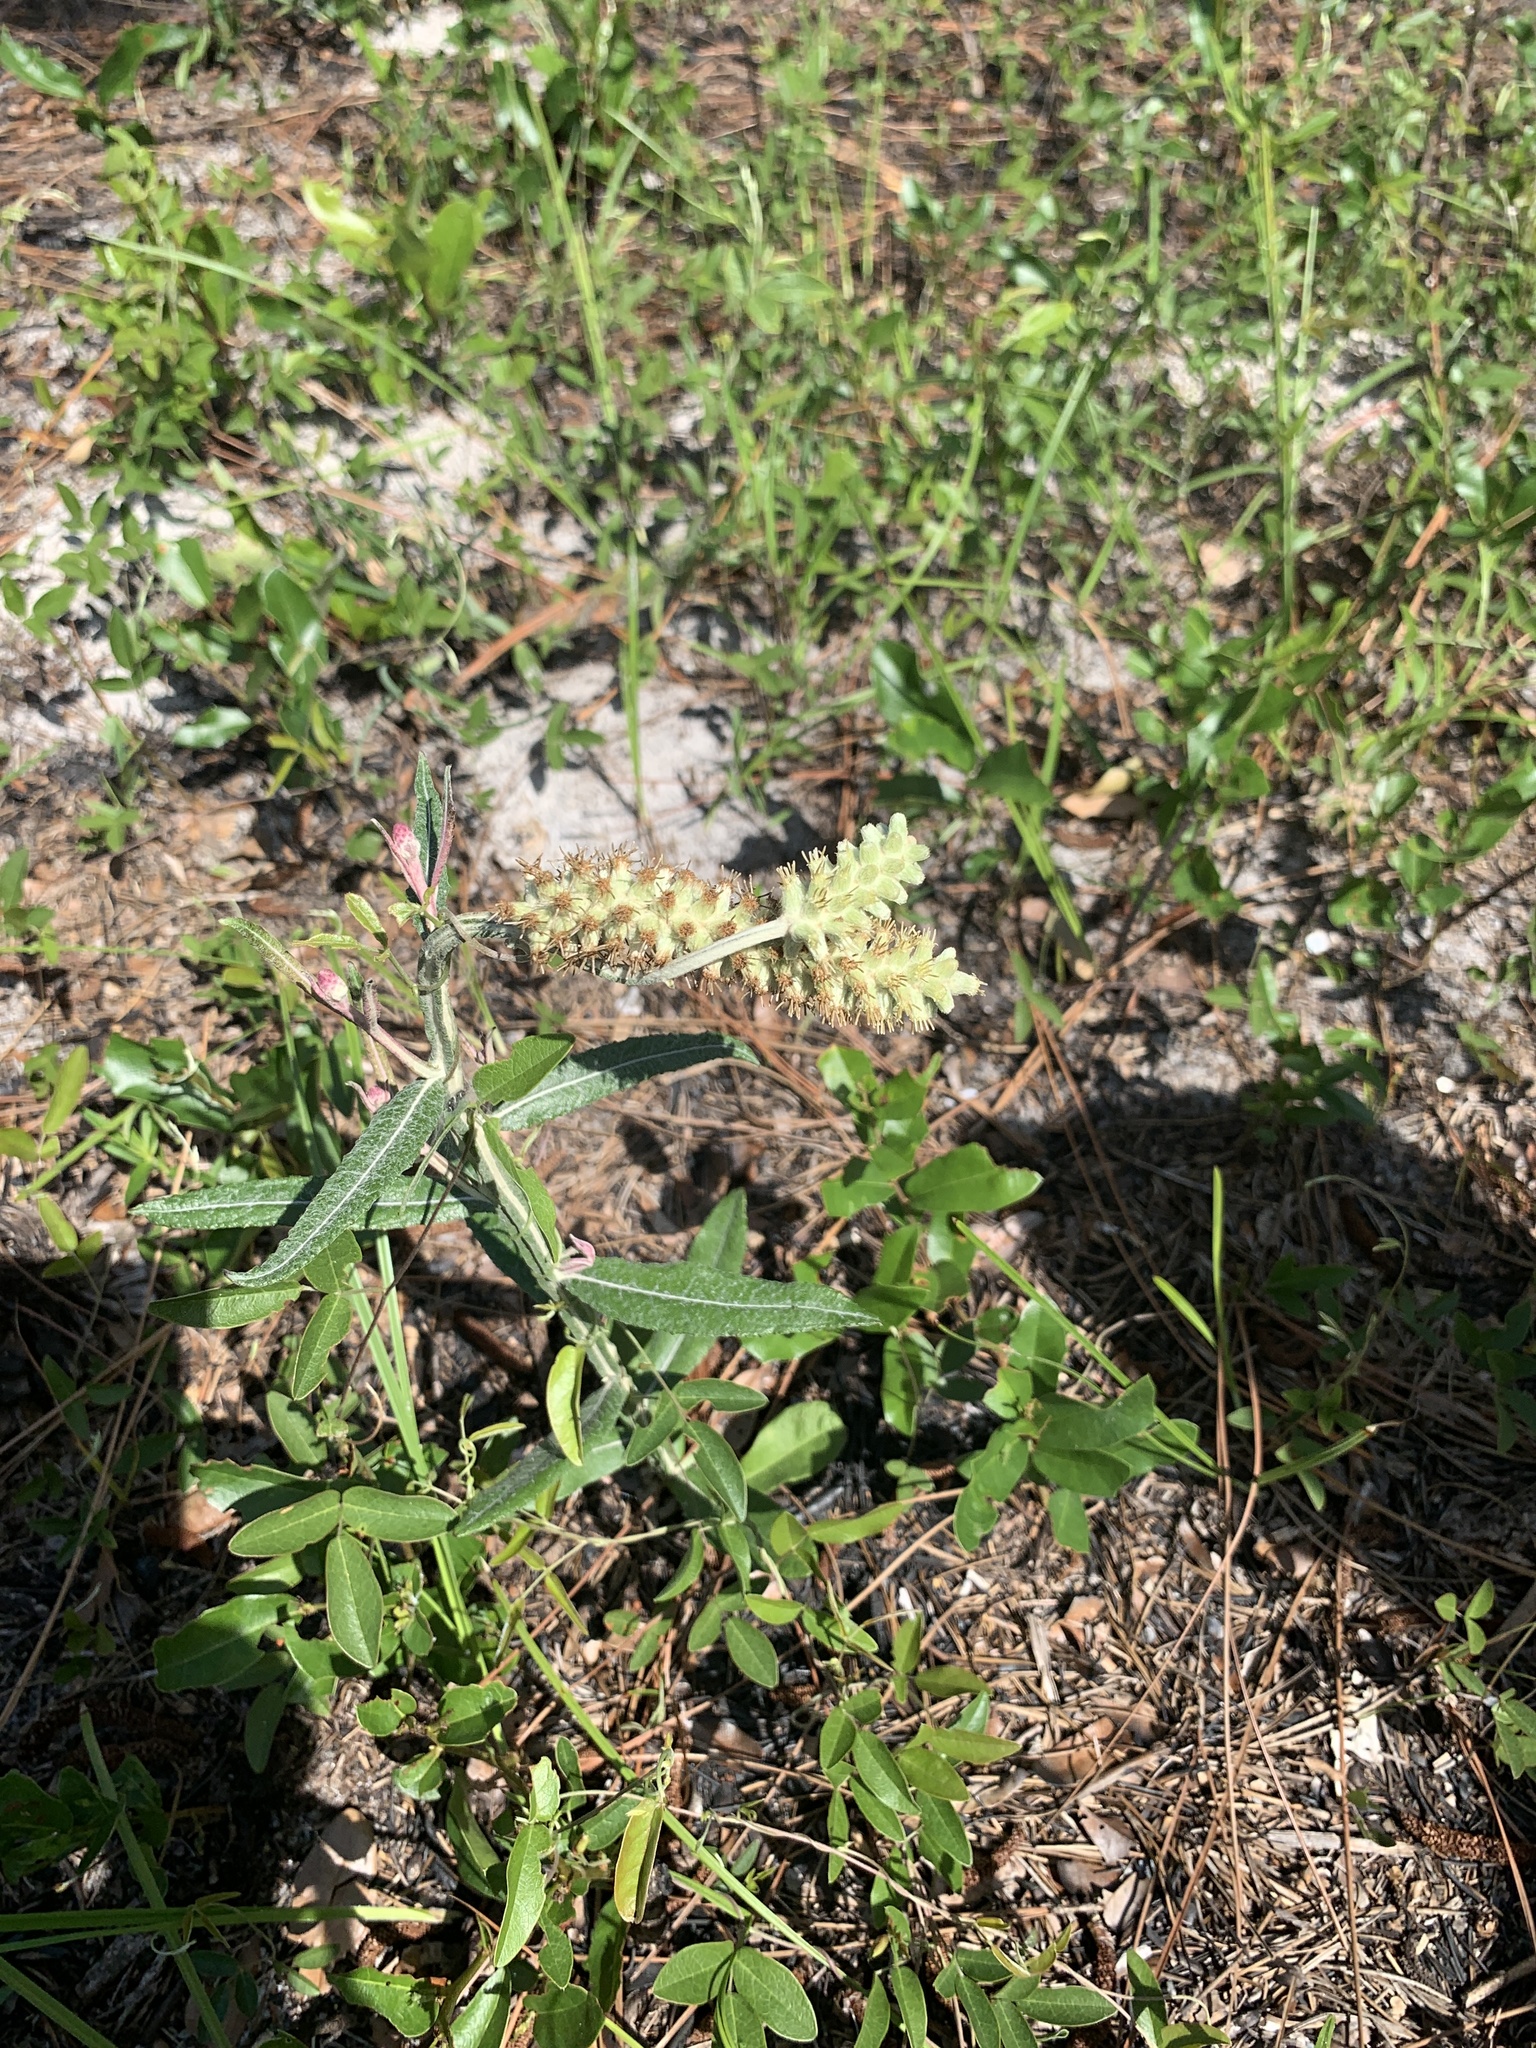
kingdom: Plantae
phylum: Tracheophyta
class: Magnoliopsida
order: Asterales
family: Asteraceae
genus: Pterocaulon
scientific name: Pterocaulon pycnostachyum
